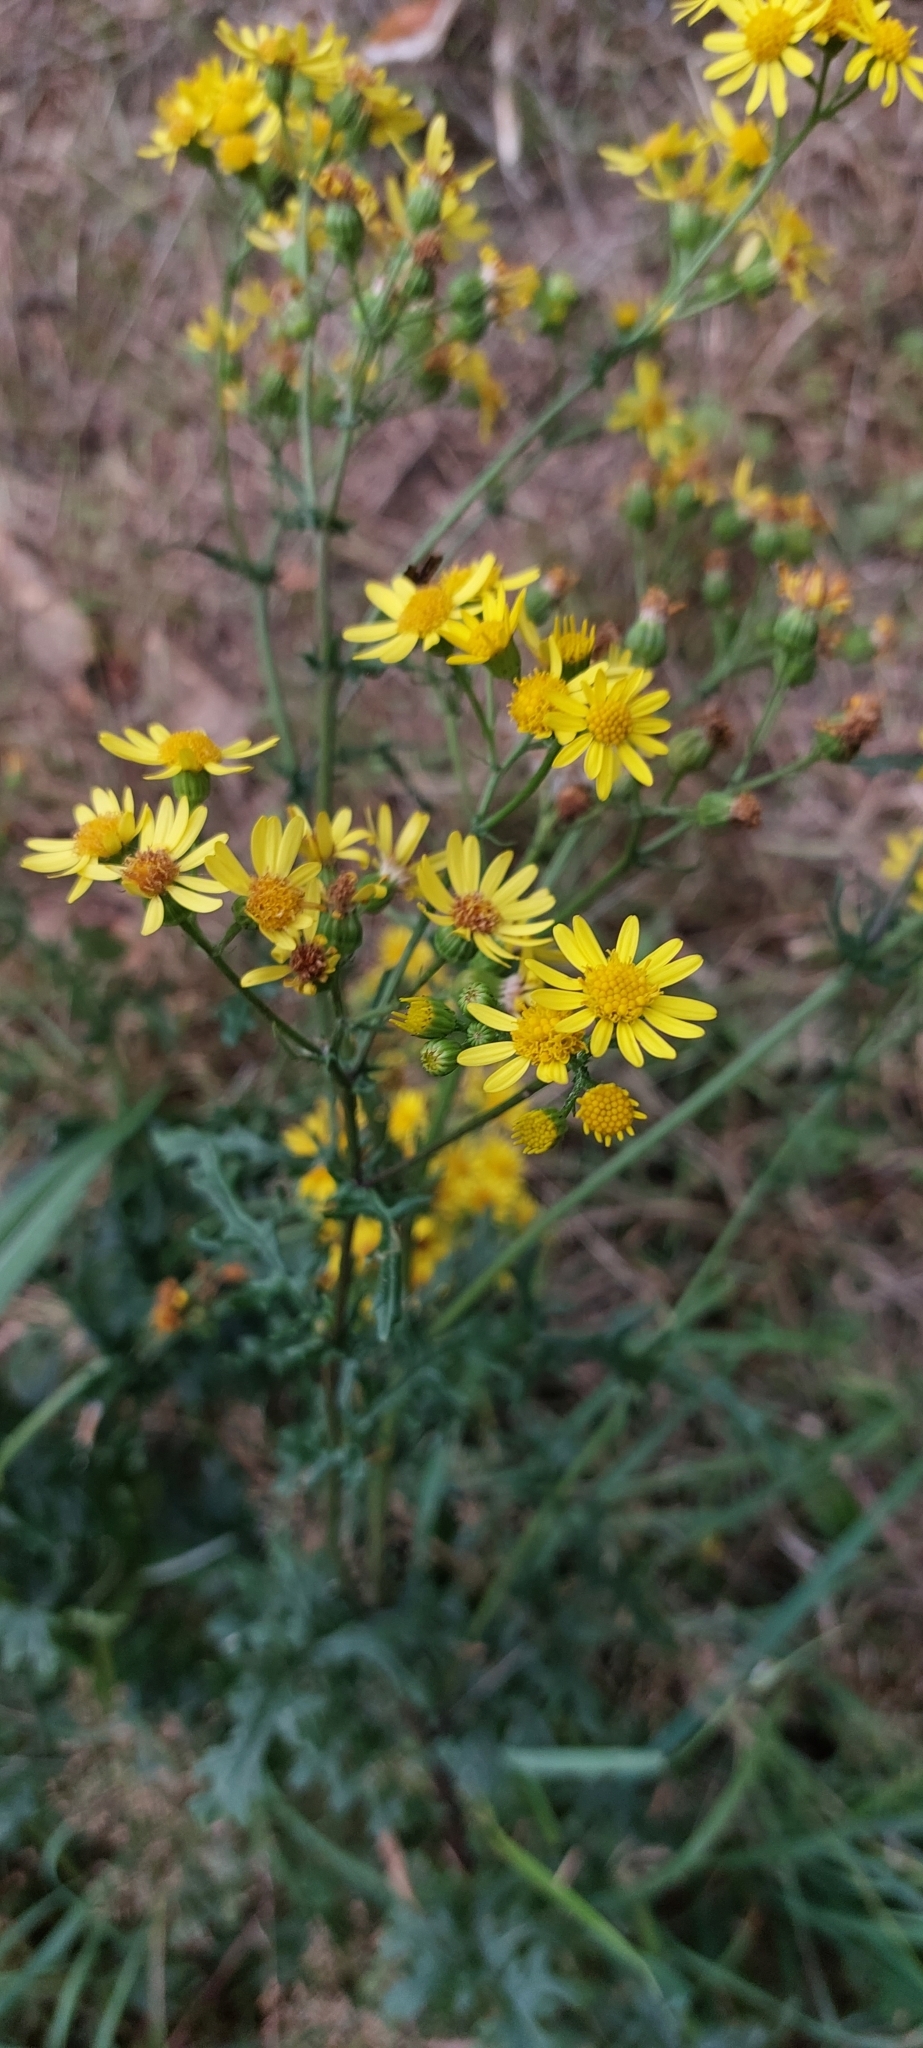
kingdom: Plantae
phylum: Tracheophyta
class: Magnoliopsida
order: Asterales
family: Asteraceae
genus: Jacobaea
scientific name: Jacobaea vulgaris
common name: Stinking willie
